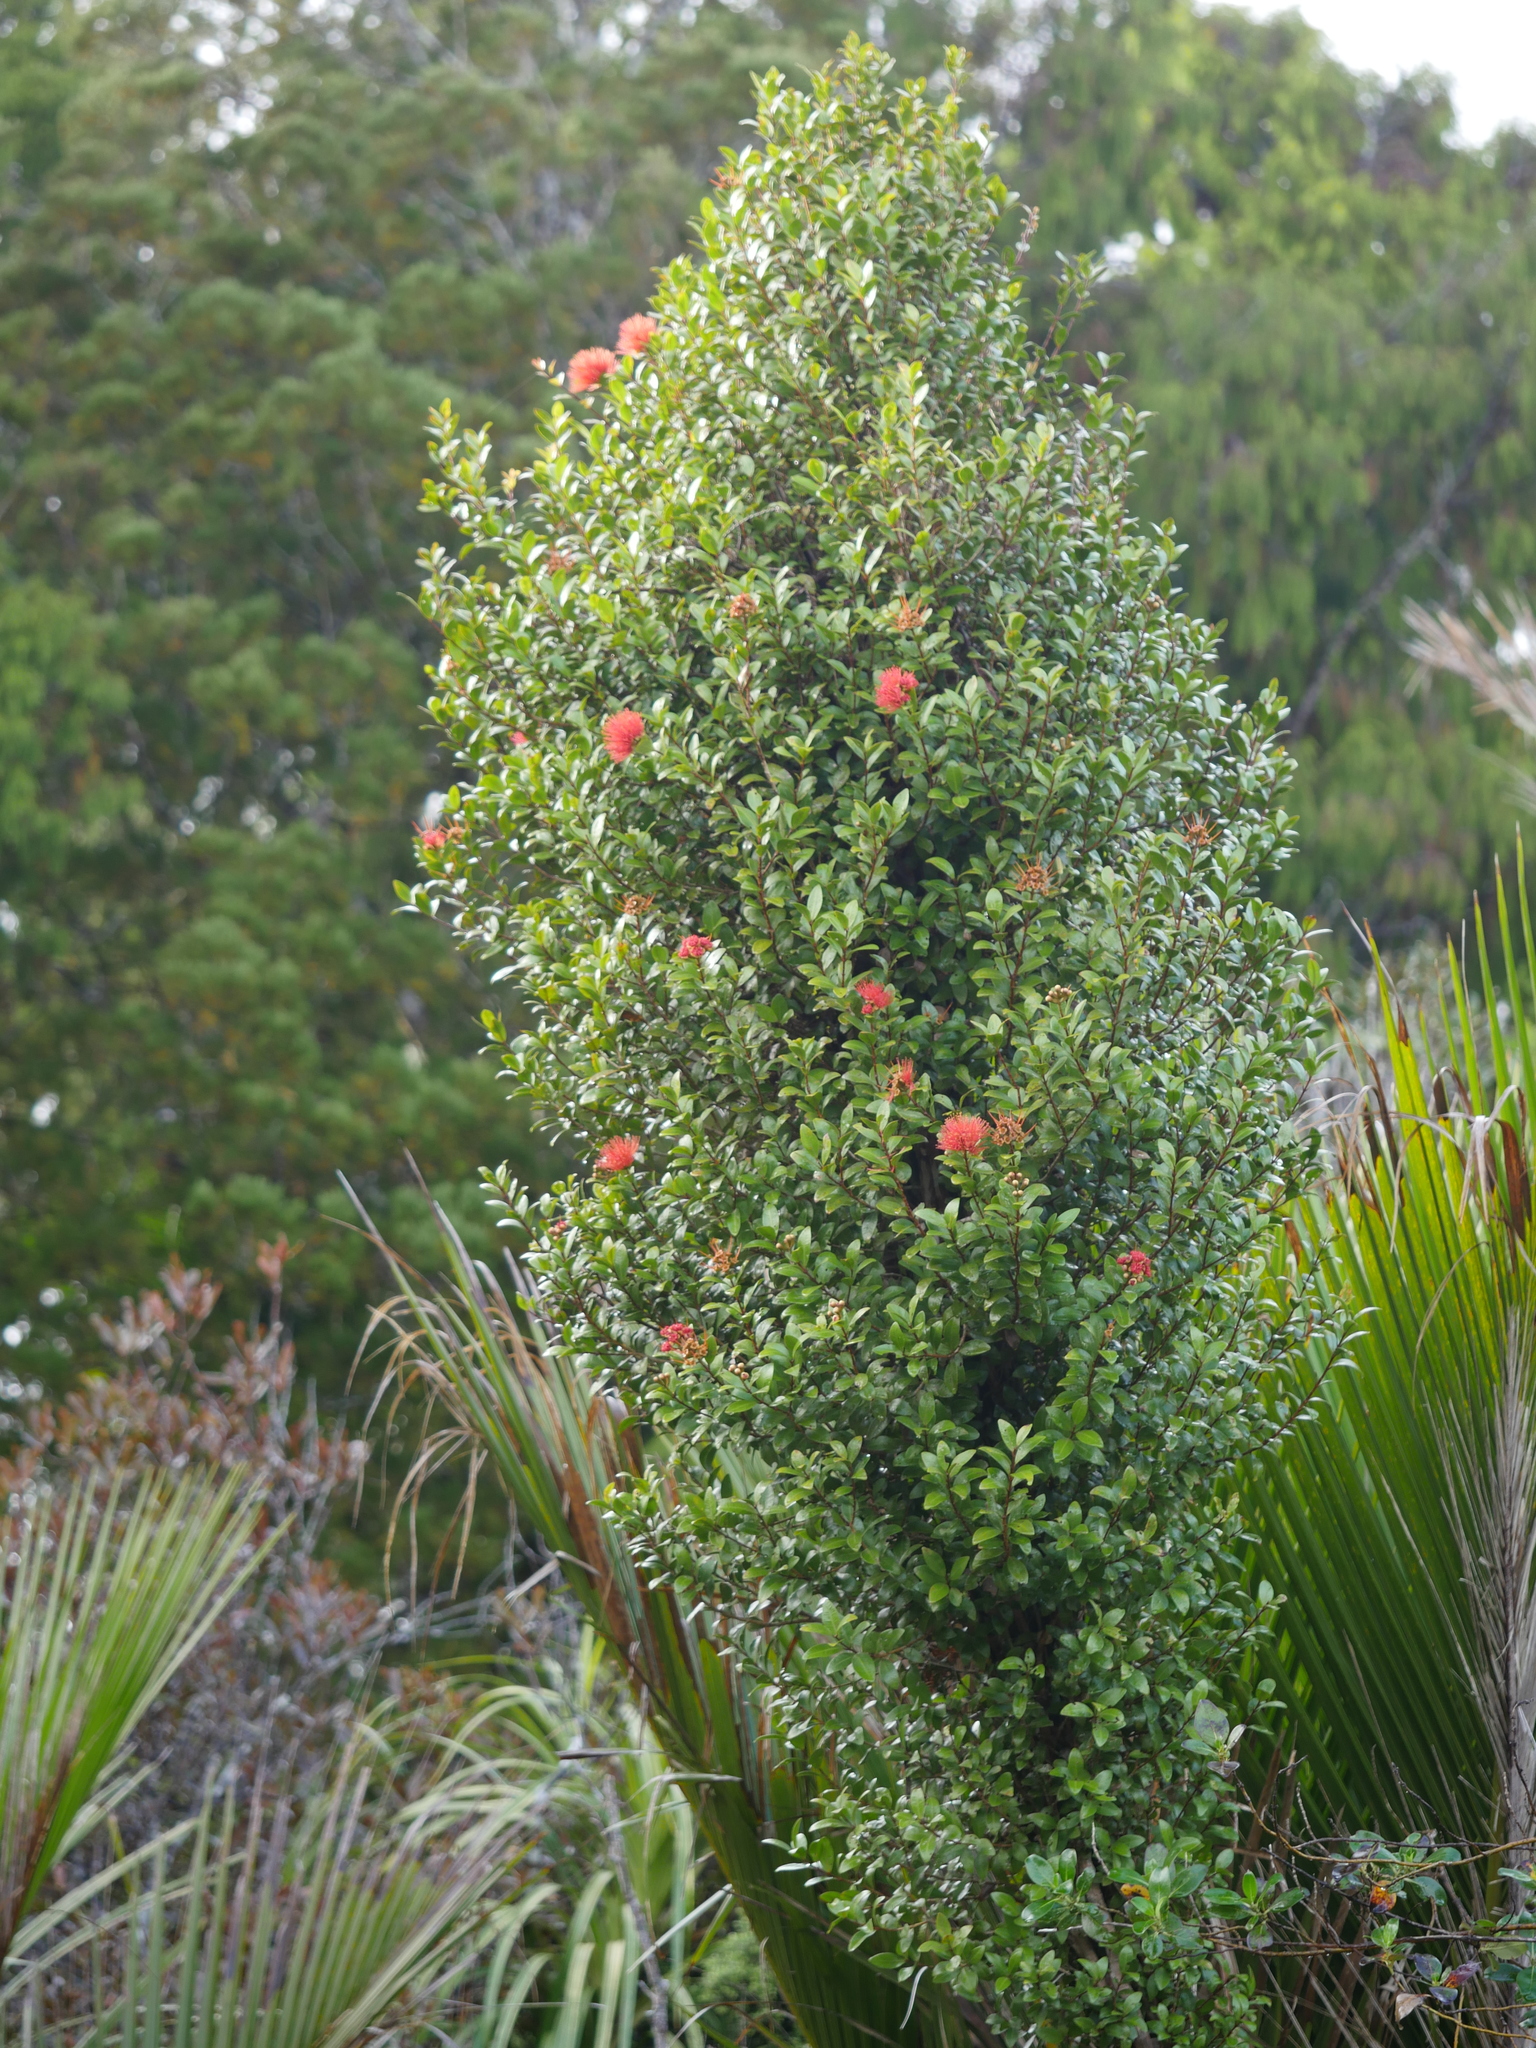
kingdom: Plantae
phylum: Tracheophyta
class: Magnoliopsida
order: Myrtales
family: Myrtaceae
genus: Metrosideros
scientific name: Metrosideros fulgens
